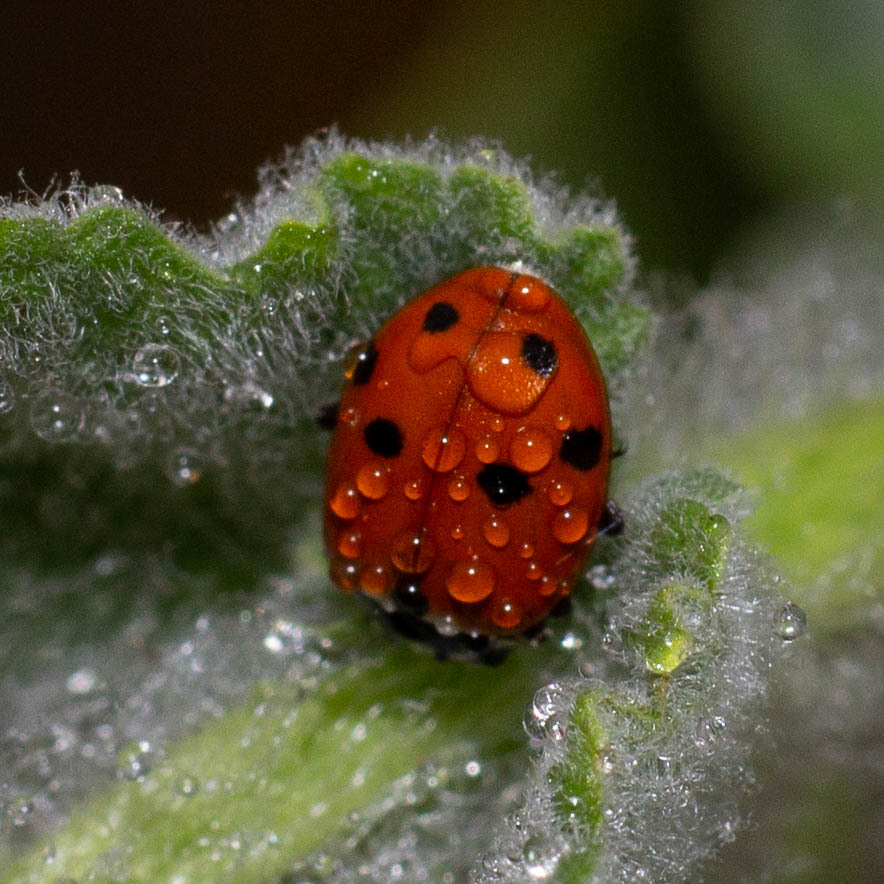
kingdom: Animalia
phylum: Arthropoda
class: Insecta
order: Coleoptera
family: Coccinellidae
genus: Hippodamia
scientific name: Hippodamia variegata
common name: Ladybird beetle
